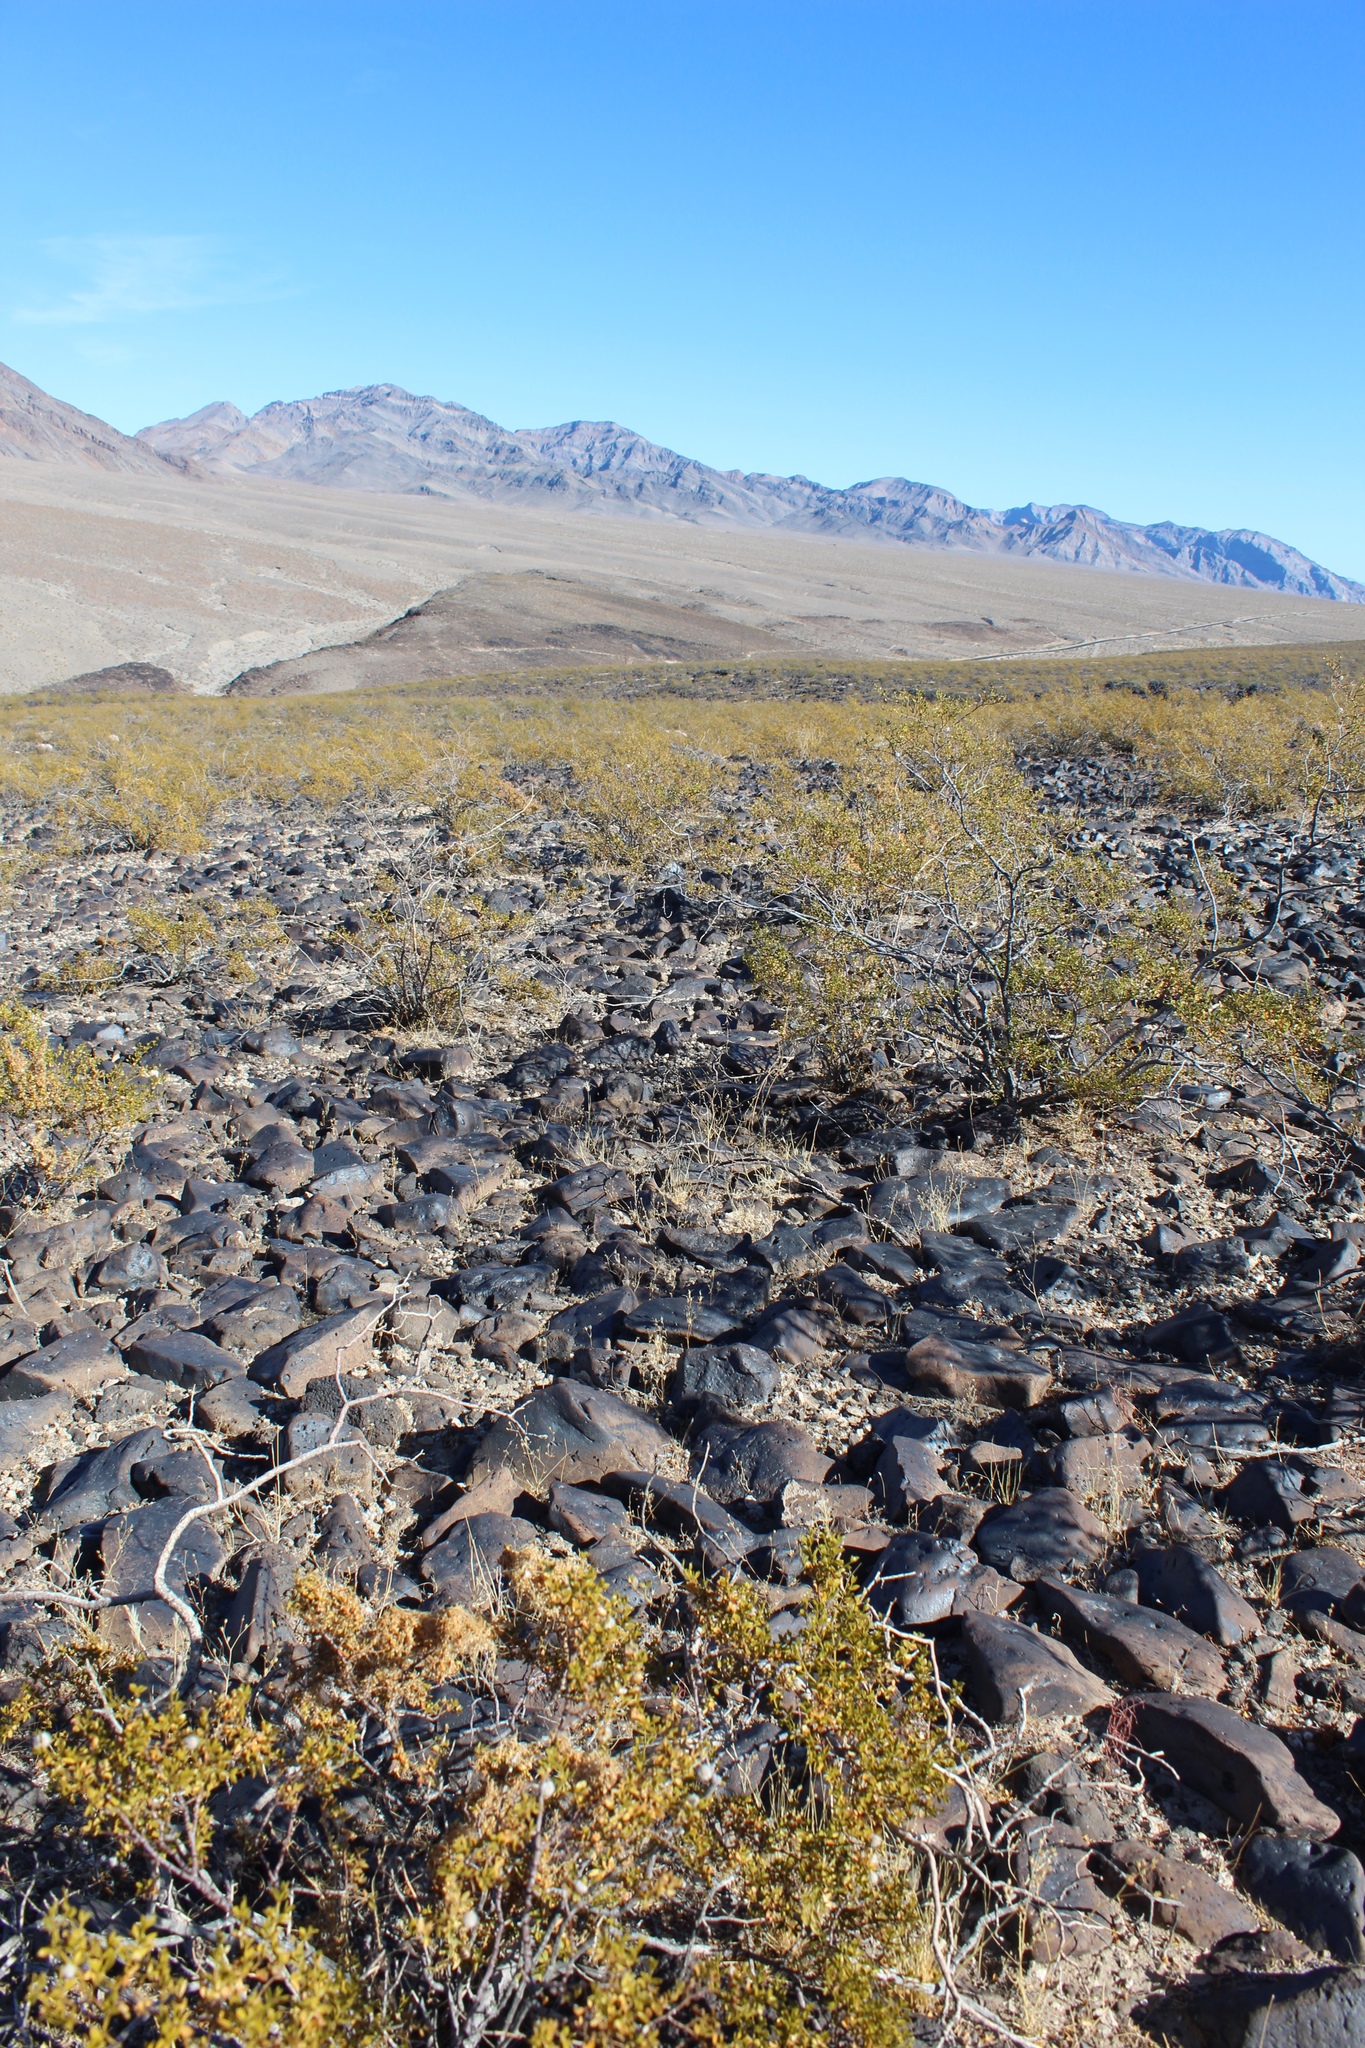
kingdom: Plantae
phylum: Tracheophyta
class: Magnoliopsida
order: Zygophyllales
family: Zygophyllaceae
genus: Larrea
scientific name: Larrea tridentata
